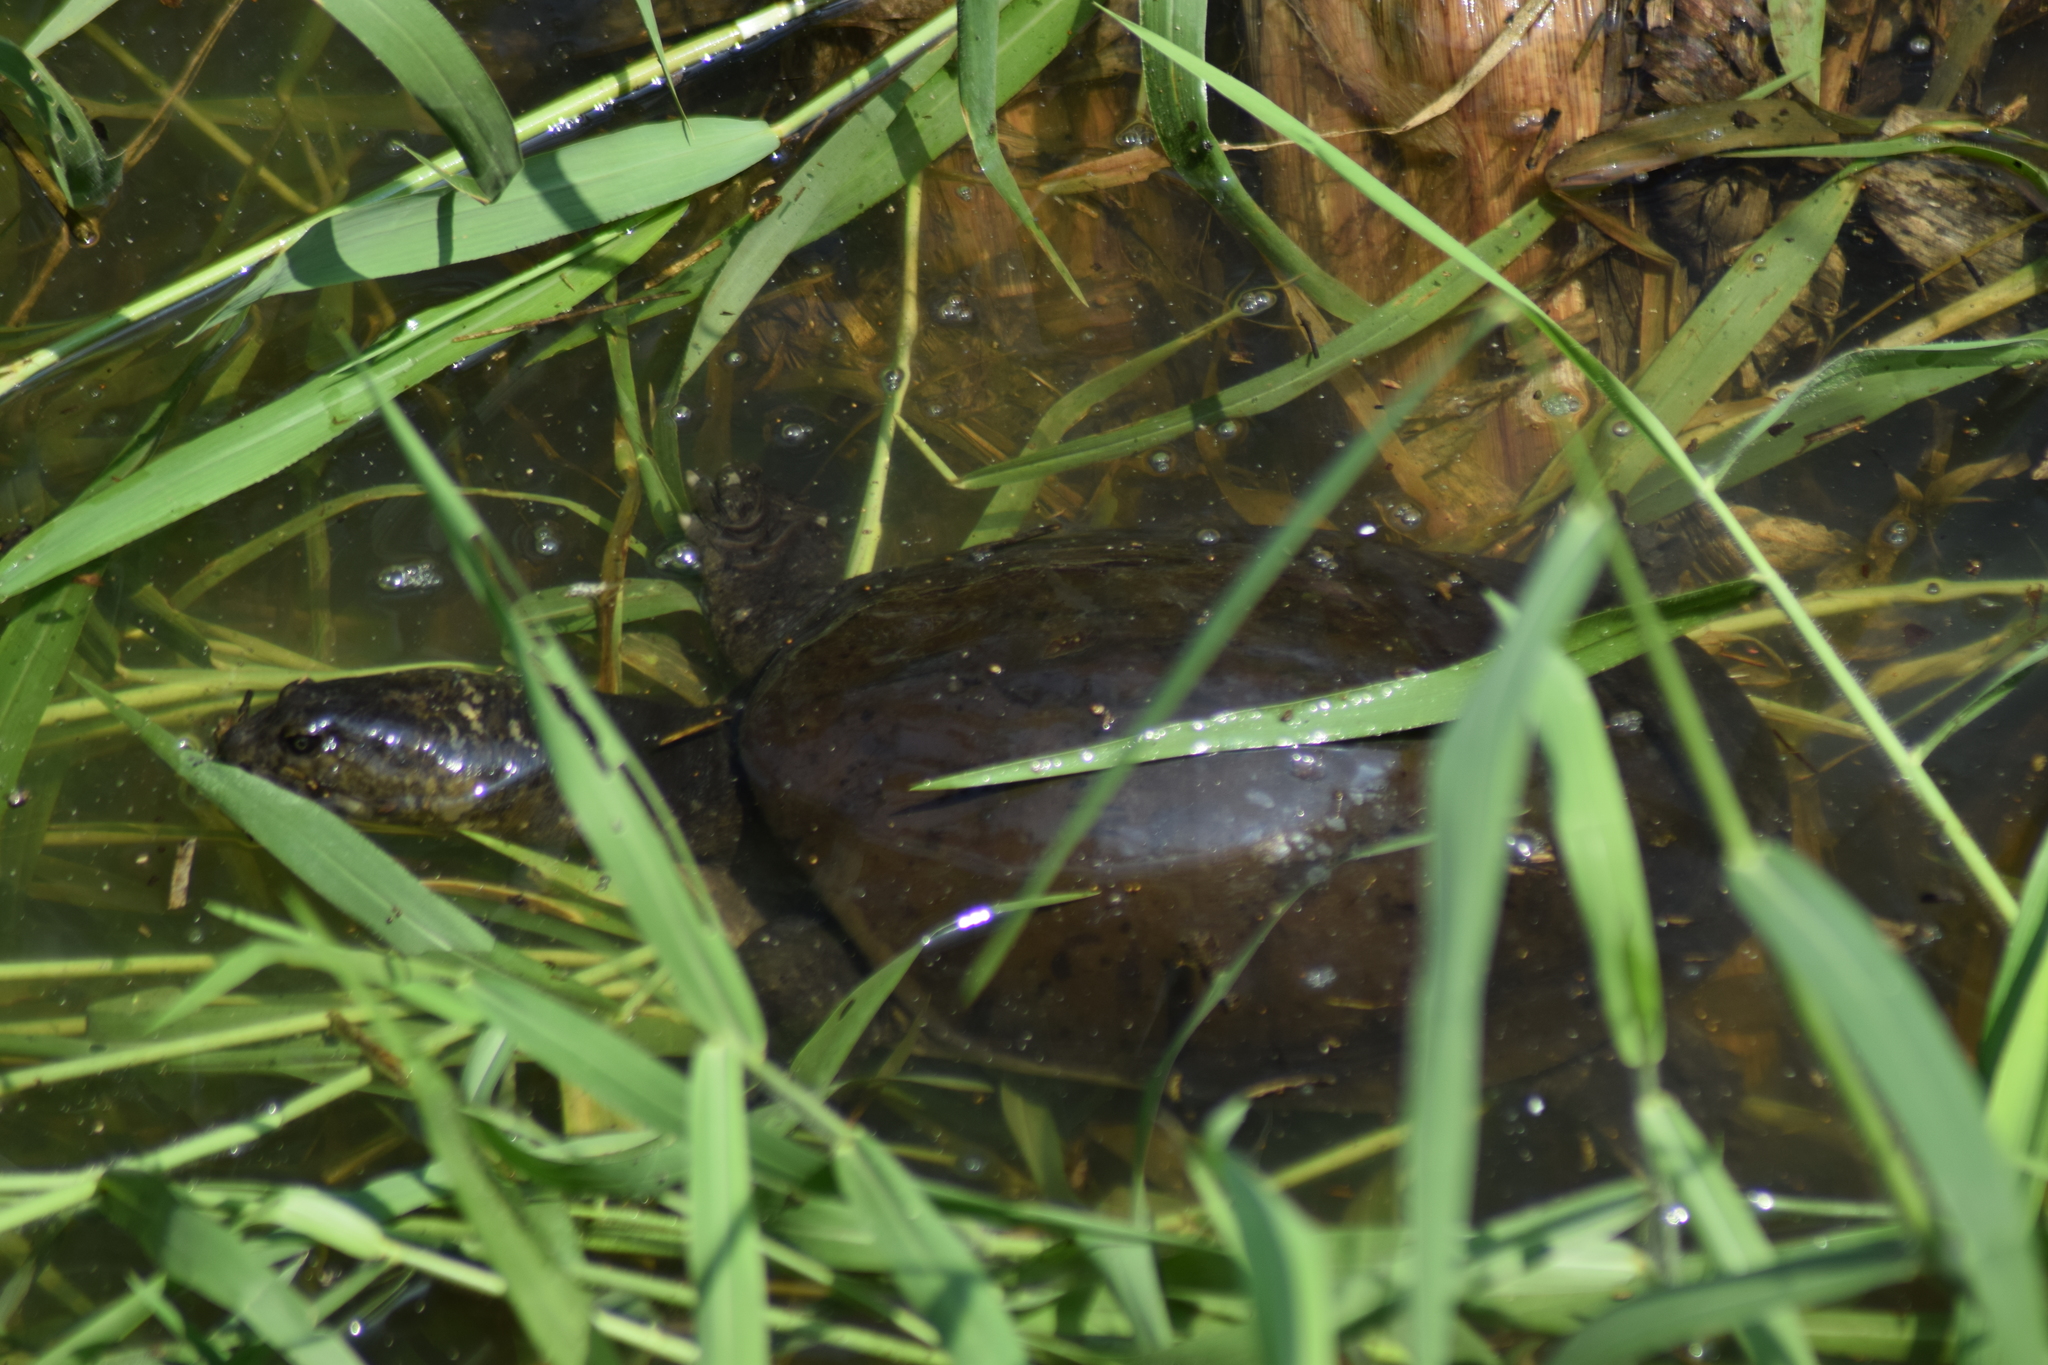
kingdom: Animalia
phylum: Chordata
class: Testudines
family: Trionychidae
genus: Lissemys
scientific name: Lissemys punctata
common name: Indian flap-shelled turtle
